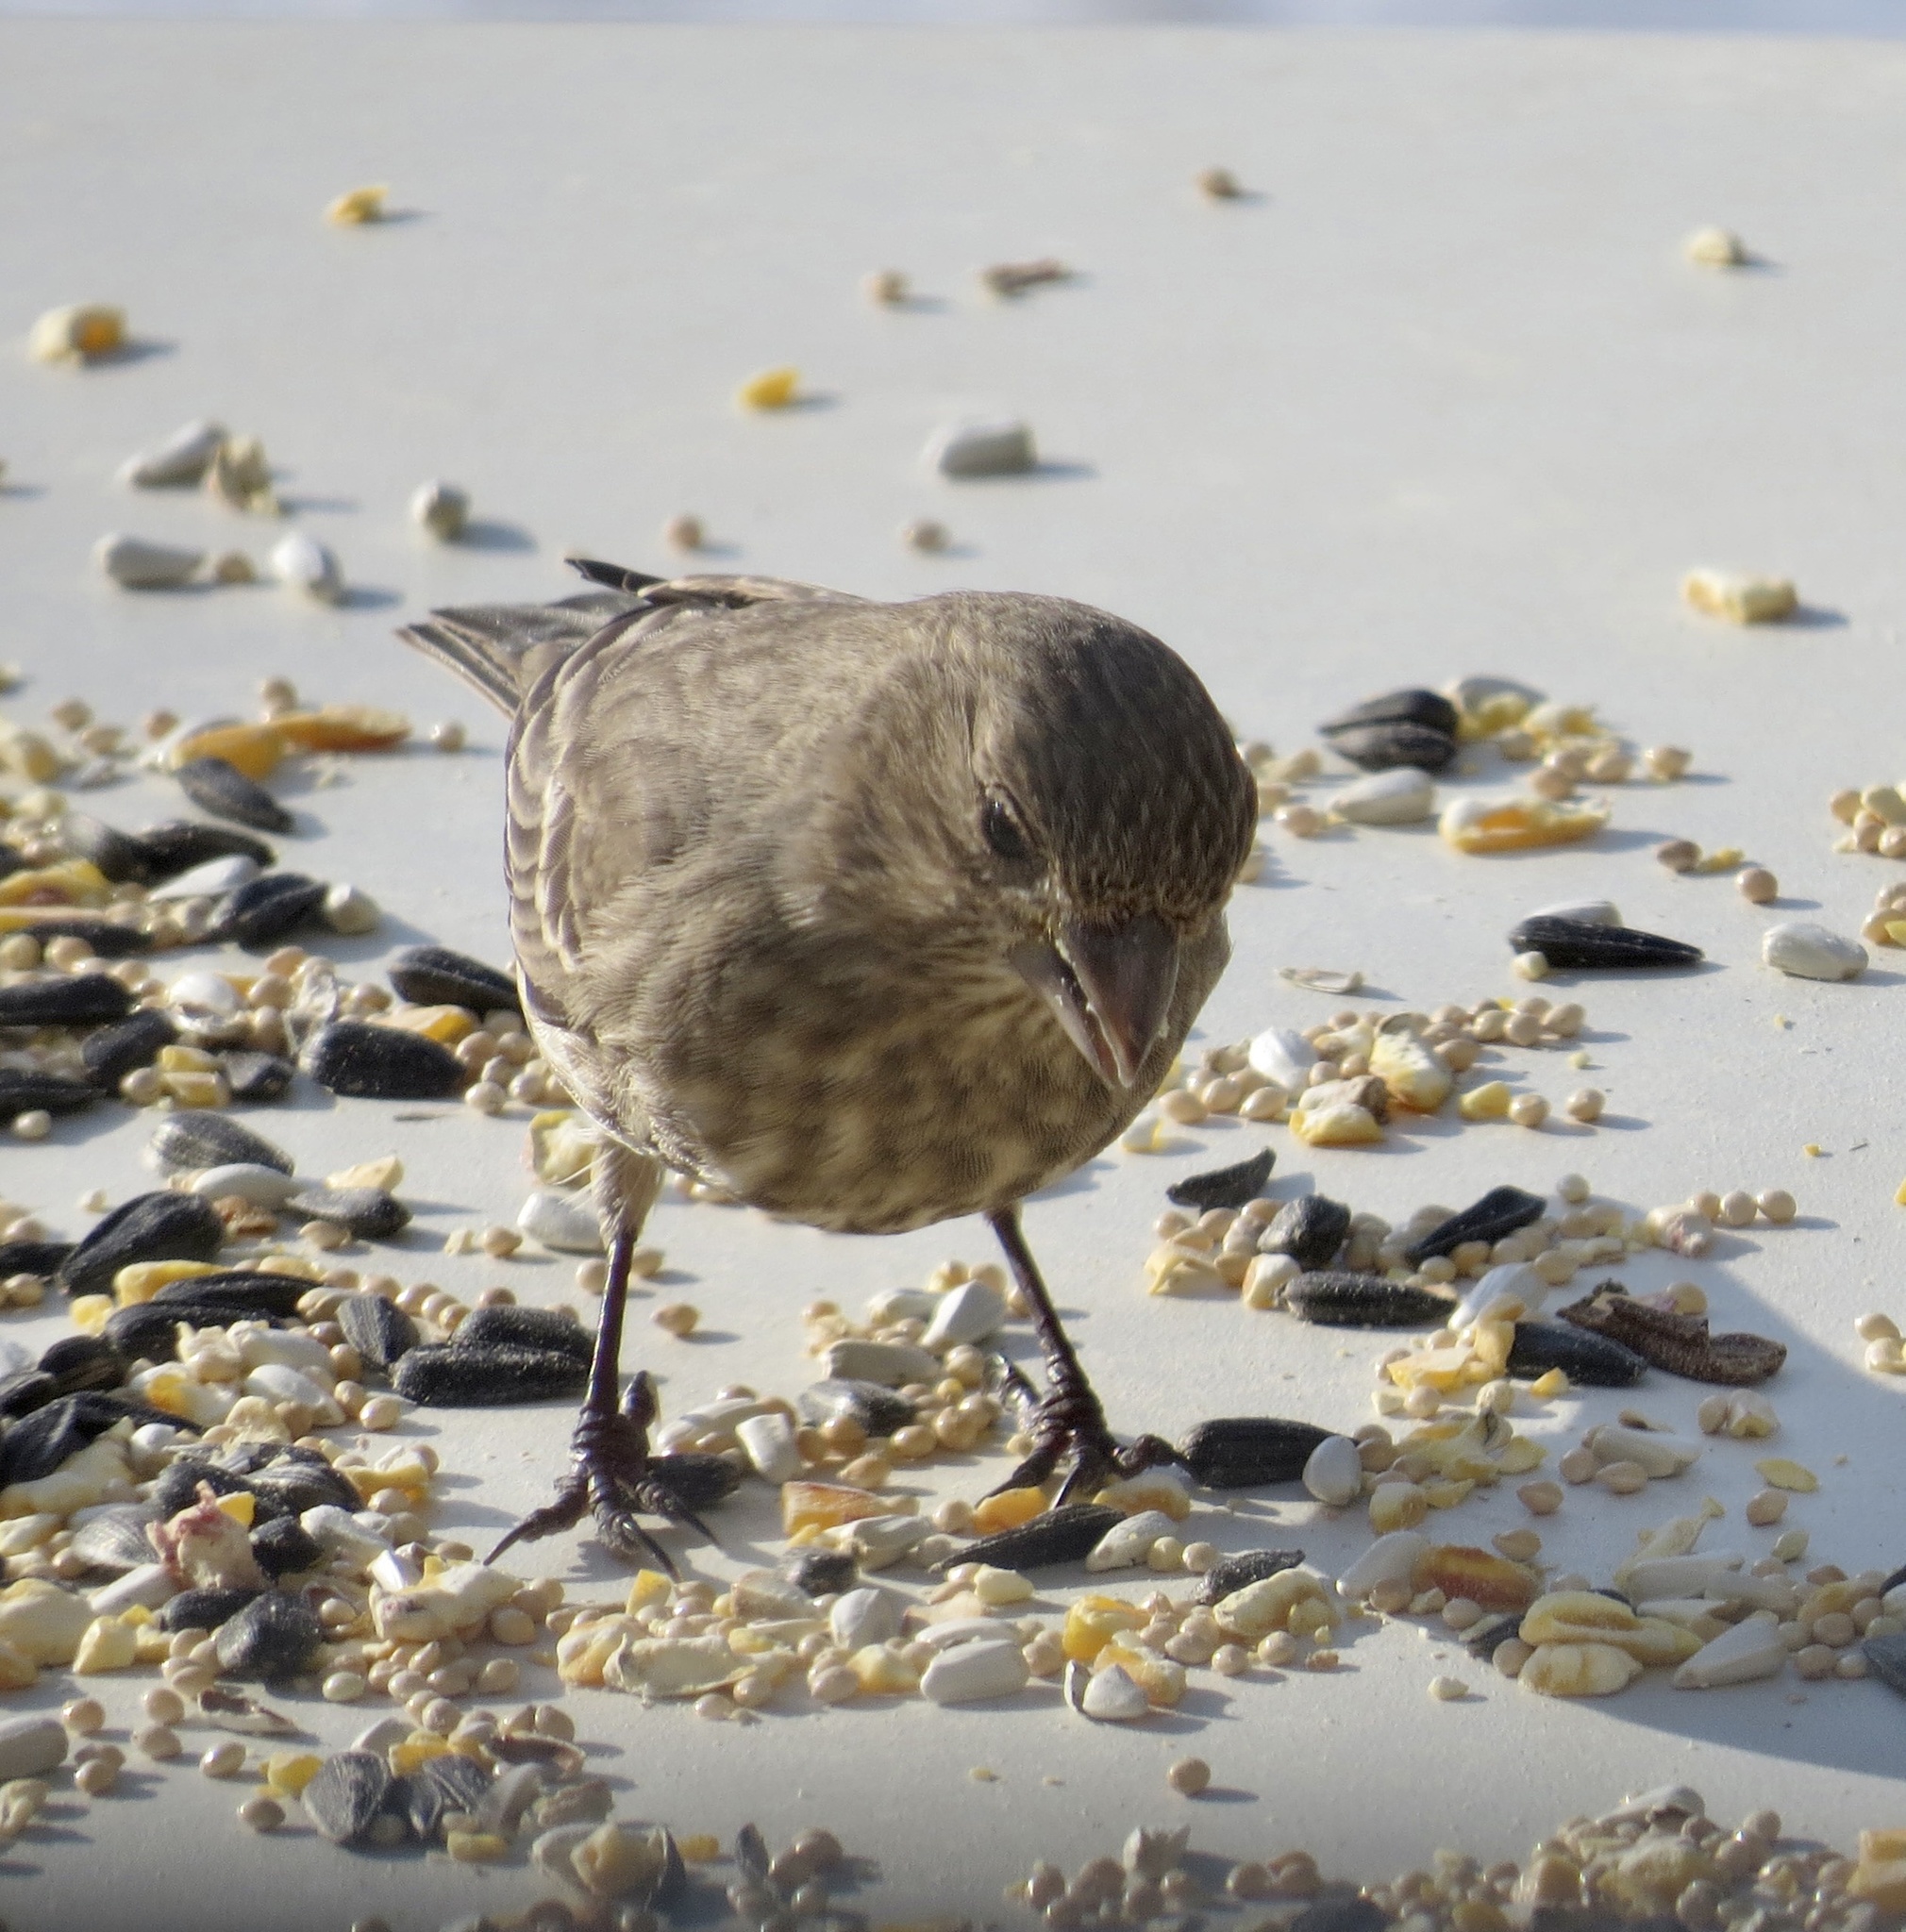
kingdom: Animalia
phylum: Chordata
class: Aves
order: Passeriformes
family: Fringillidae
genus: Haemorhous
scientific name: Haemorhous mexicanus
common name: House finch
